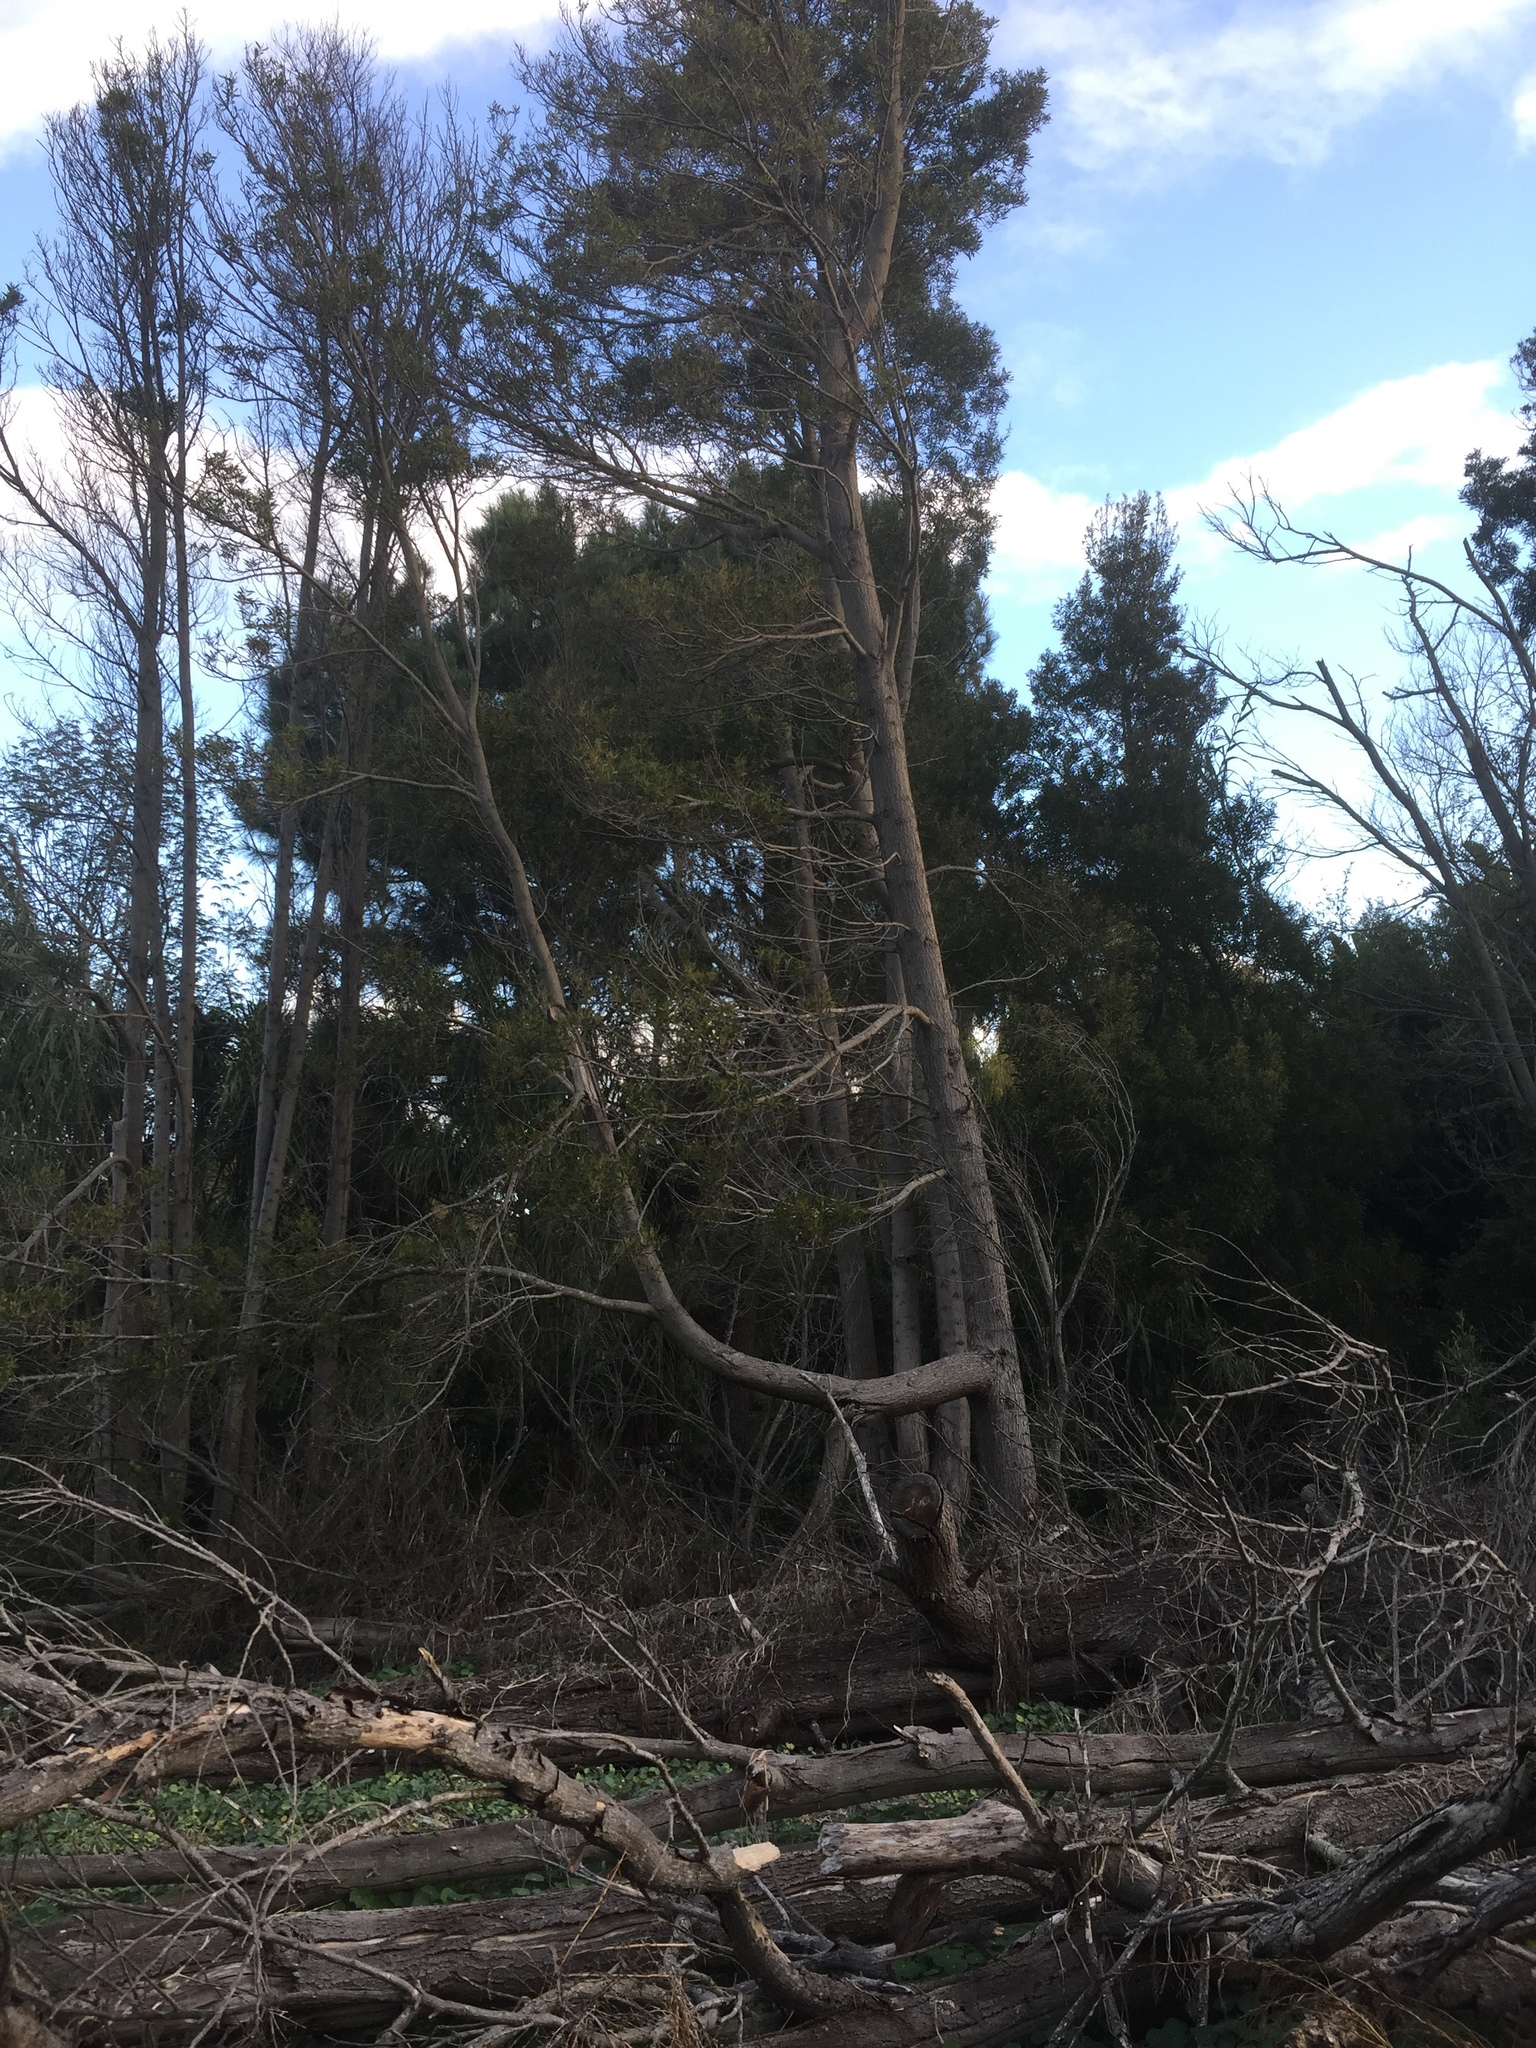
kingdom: Plantae
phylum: Tracheophyta
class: Magnoliopsida
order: Fabales
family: Fabaceae
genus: Acacia
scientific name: Acacia melanoxylon
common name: Blackwood
